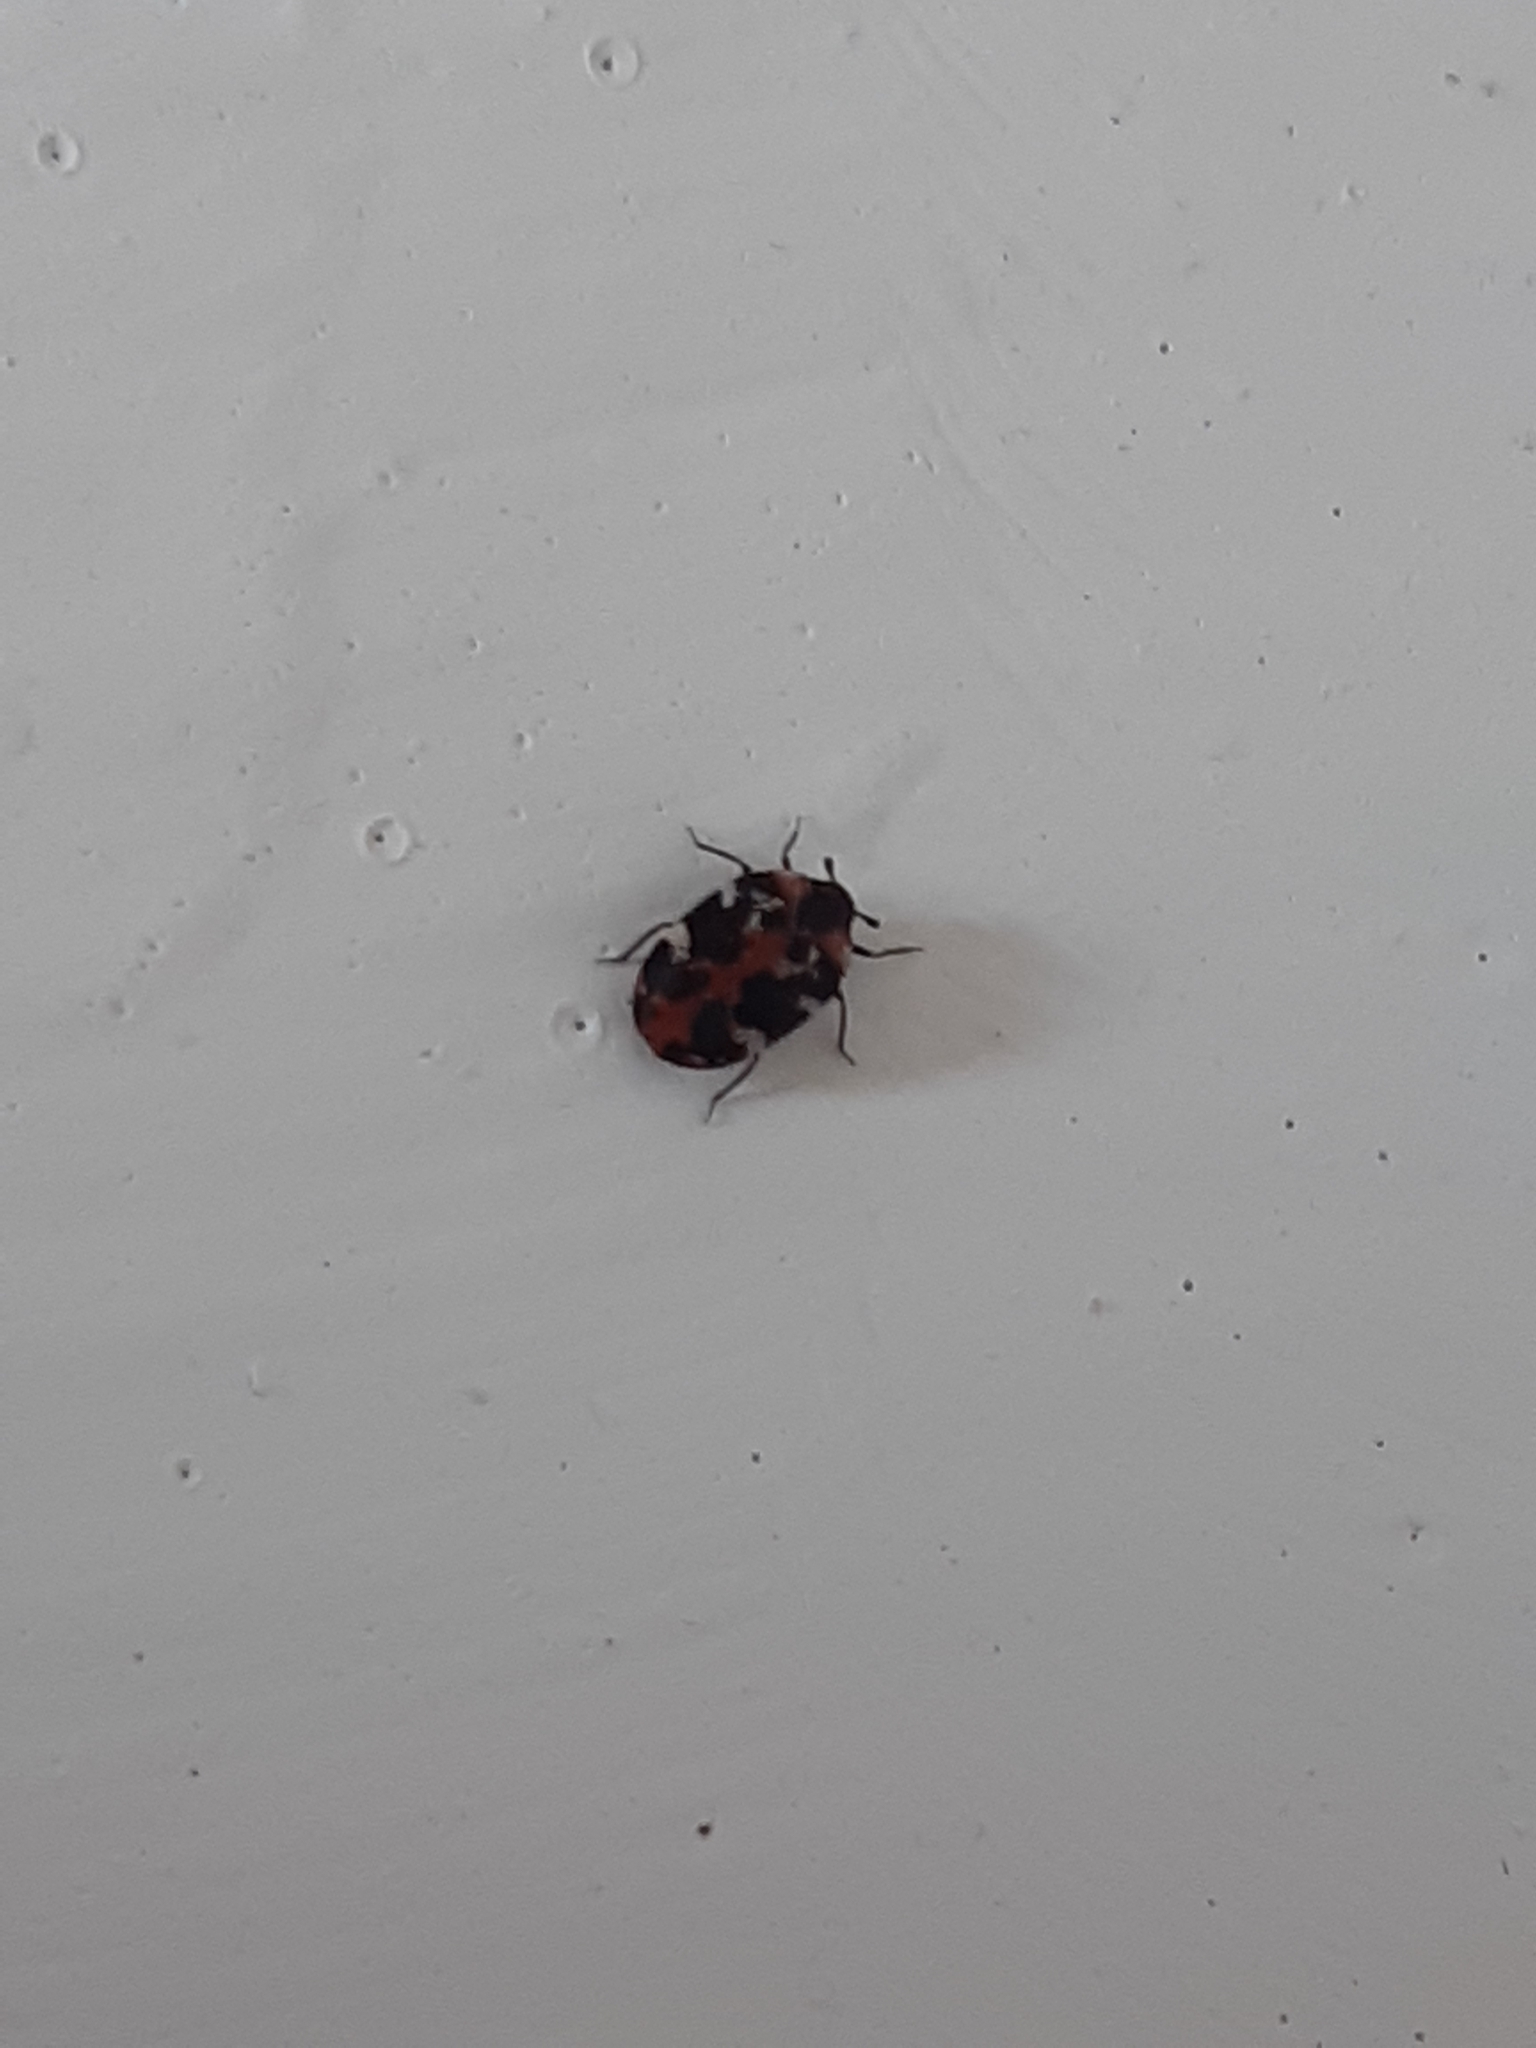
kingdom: Animalia
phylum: Arthropoda
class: Insecta
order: Coleoptera
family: Dermestidae
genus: Anthrenus
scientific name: Anthrenus scrophulariae
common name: Buffalo carpet beetle
